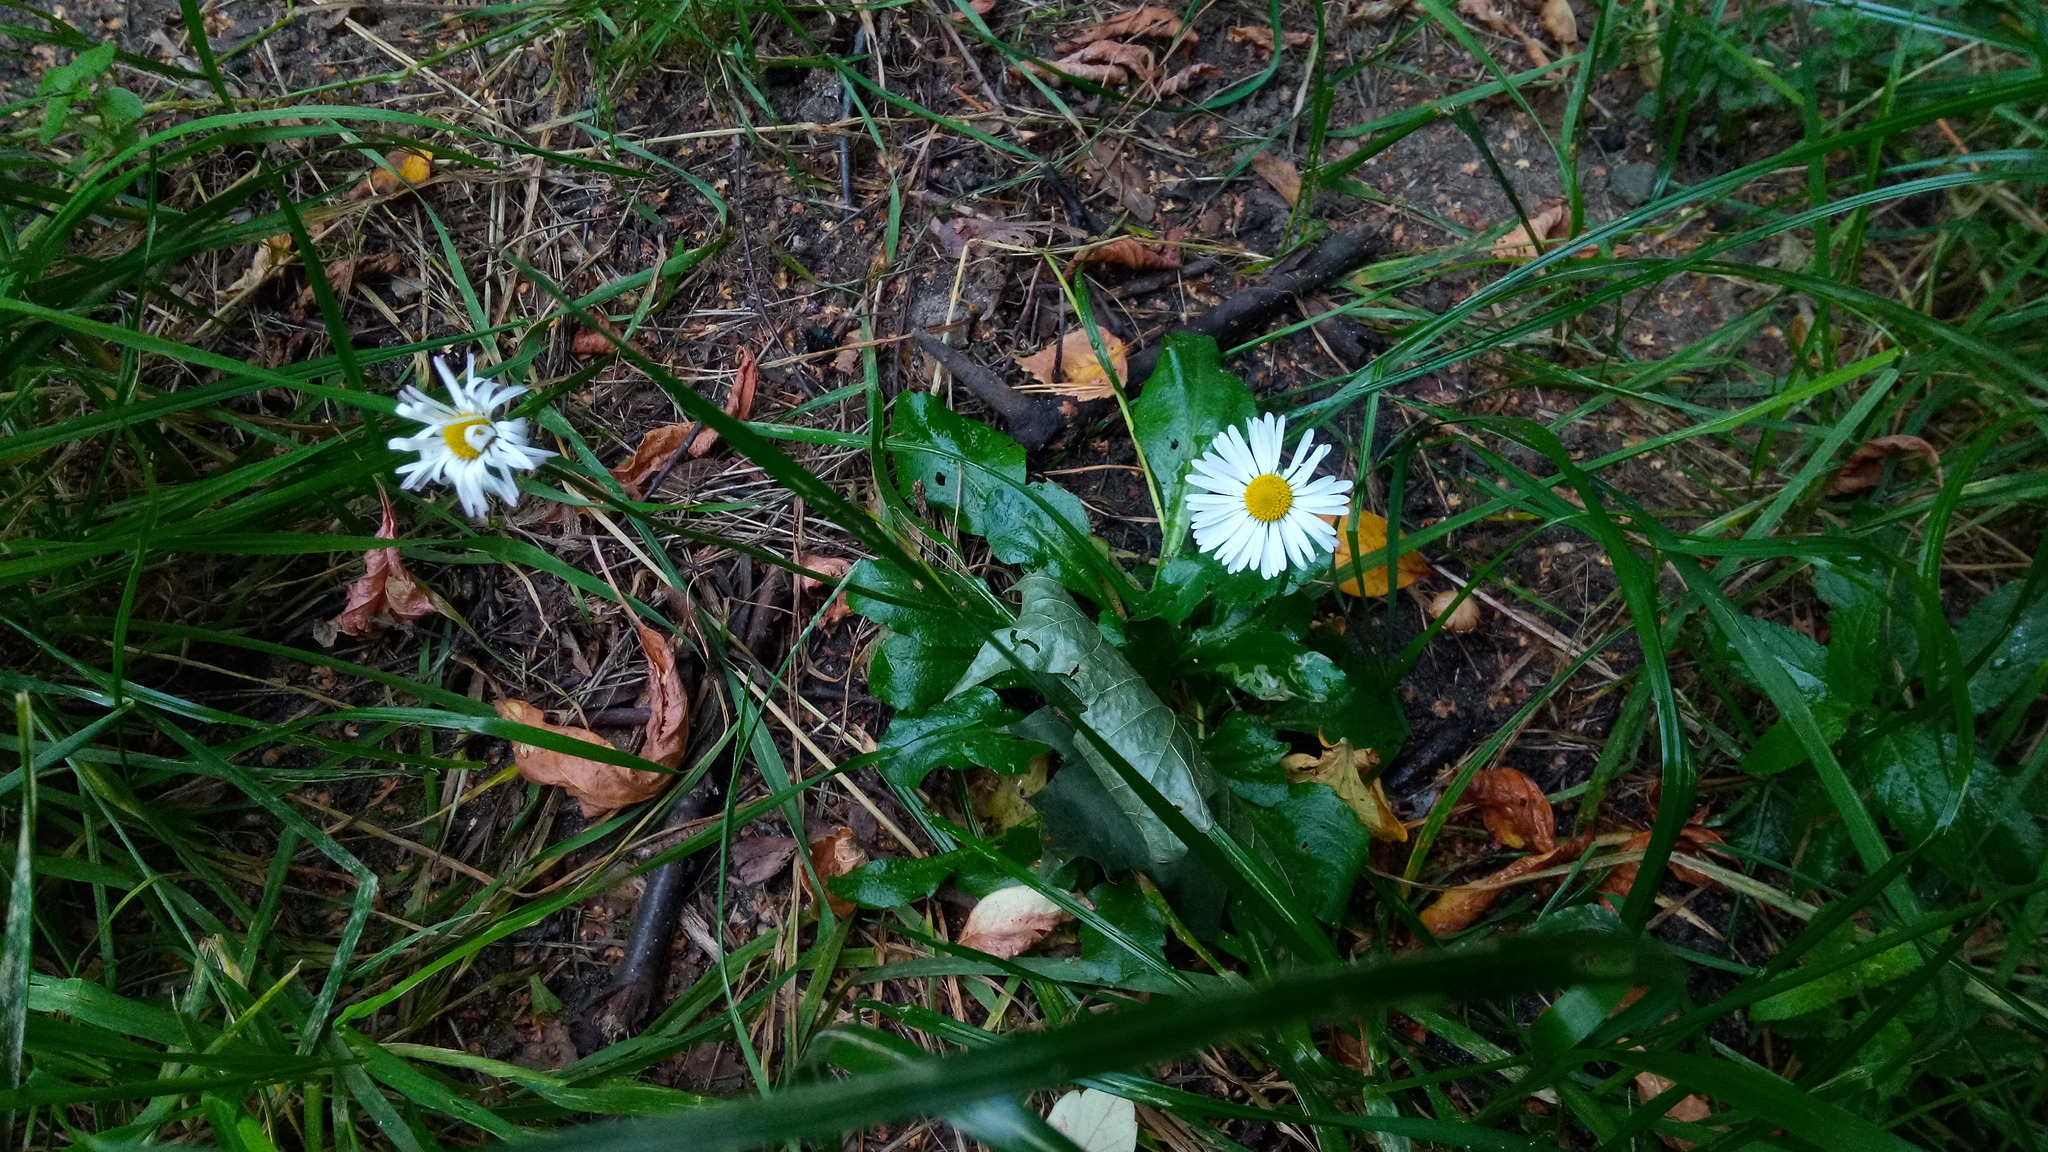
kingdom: Plantae
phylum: Tracheophyta
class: Magnoliopsida
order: Asterales
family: Asteraceae
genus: Bellis
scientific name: Bellis perennis
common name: Lawndaisy
